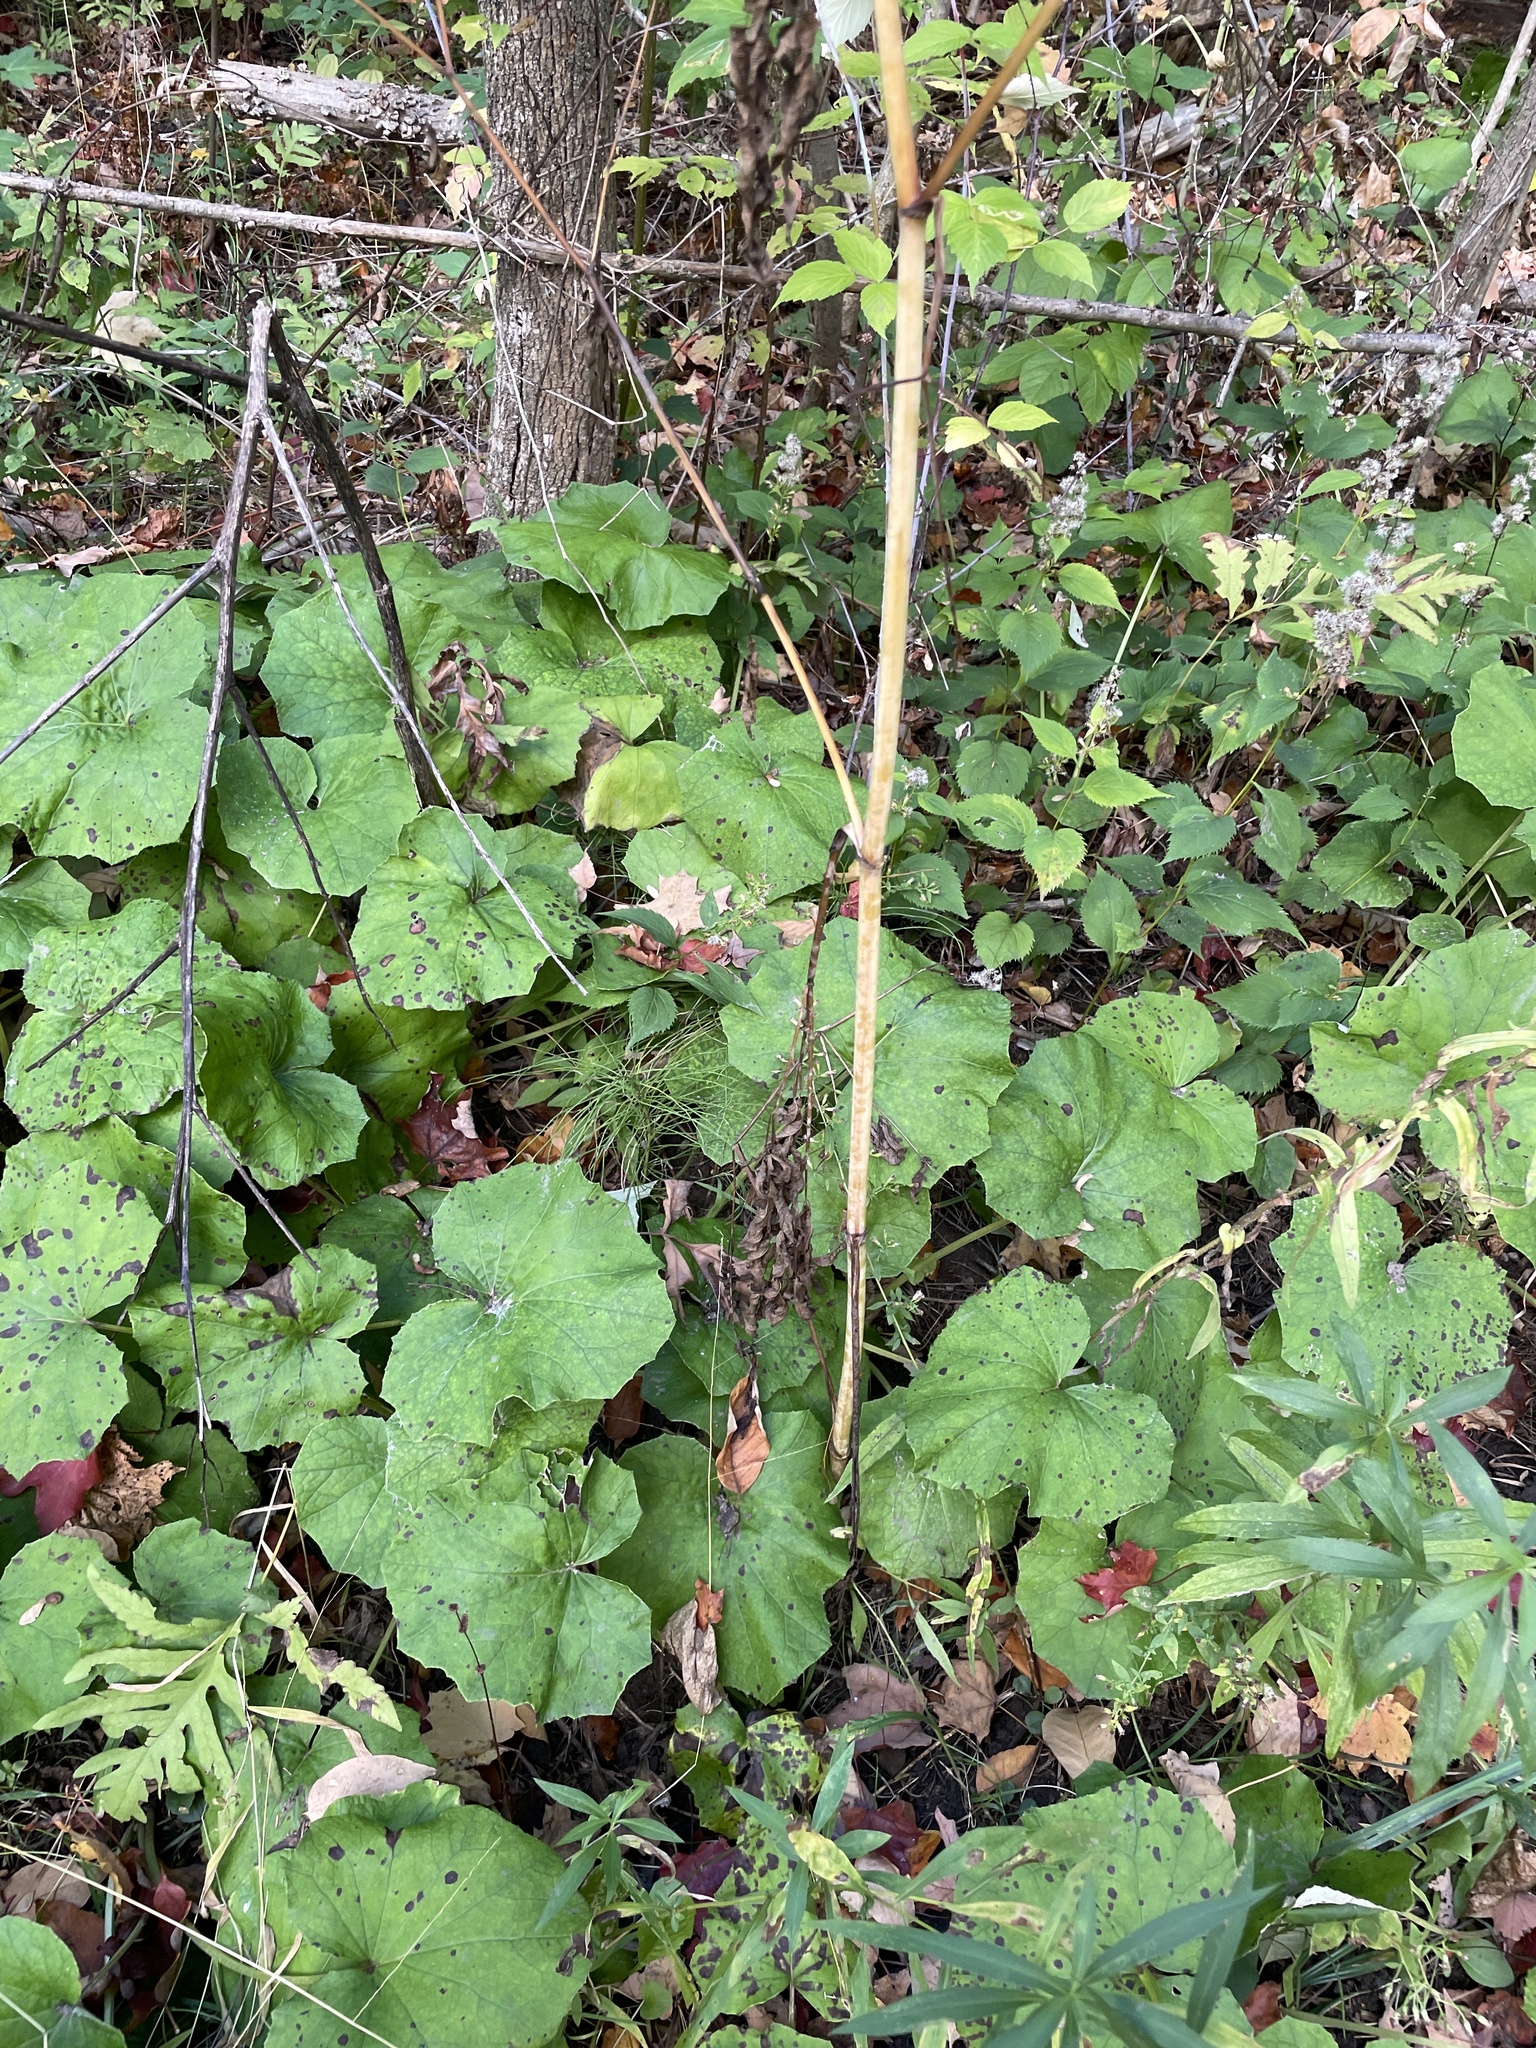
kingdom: Plantae
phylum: Tracheophyta
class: Magnoliopsida
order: Asterales
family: Asteraceae
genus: Tussilago
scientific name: Tussilago farfara
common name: Coltsfoot
